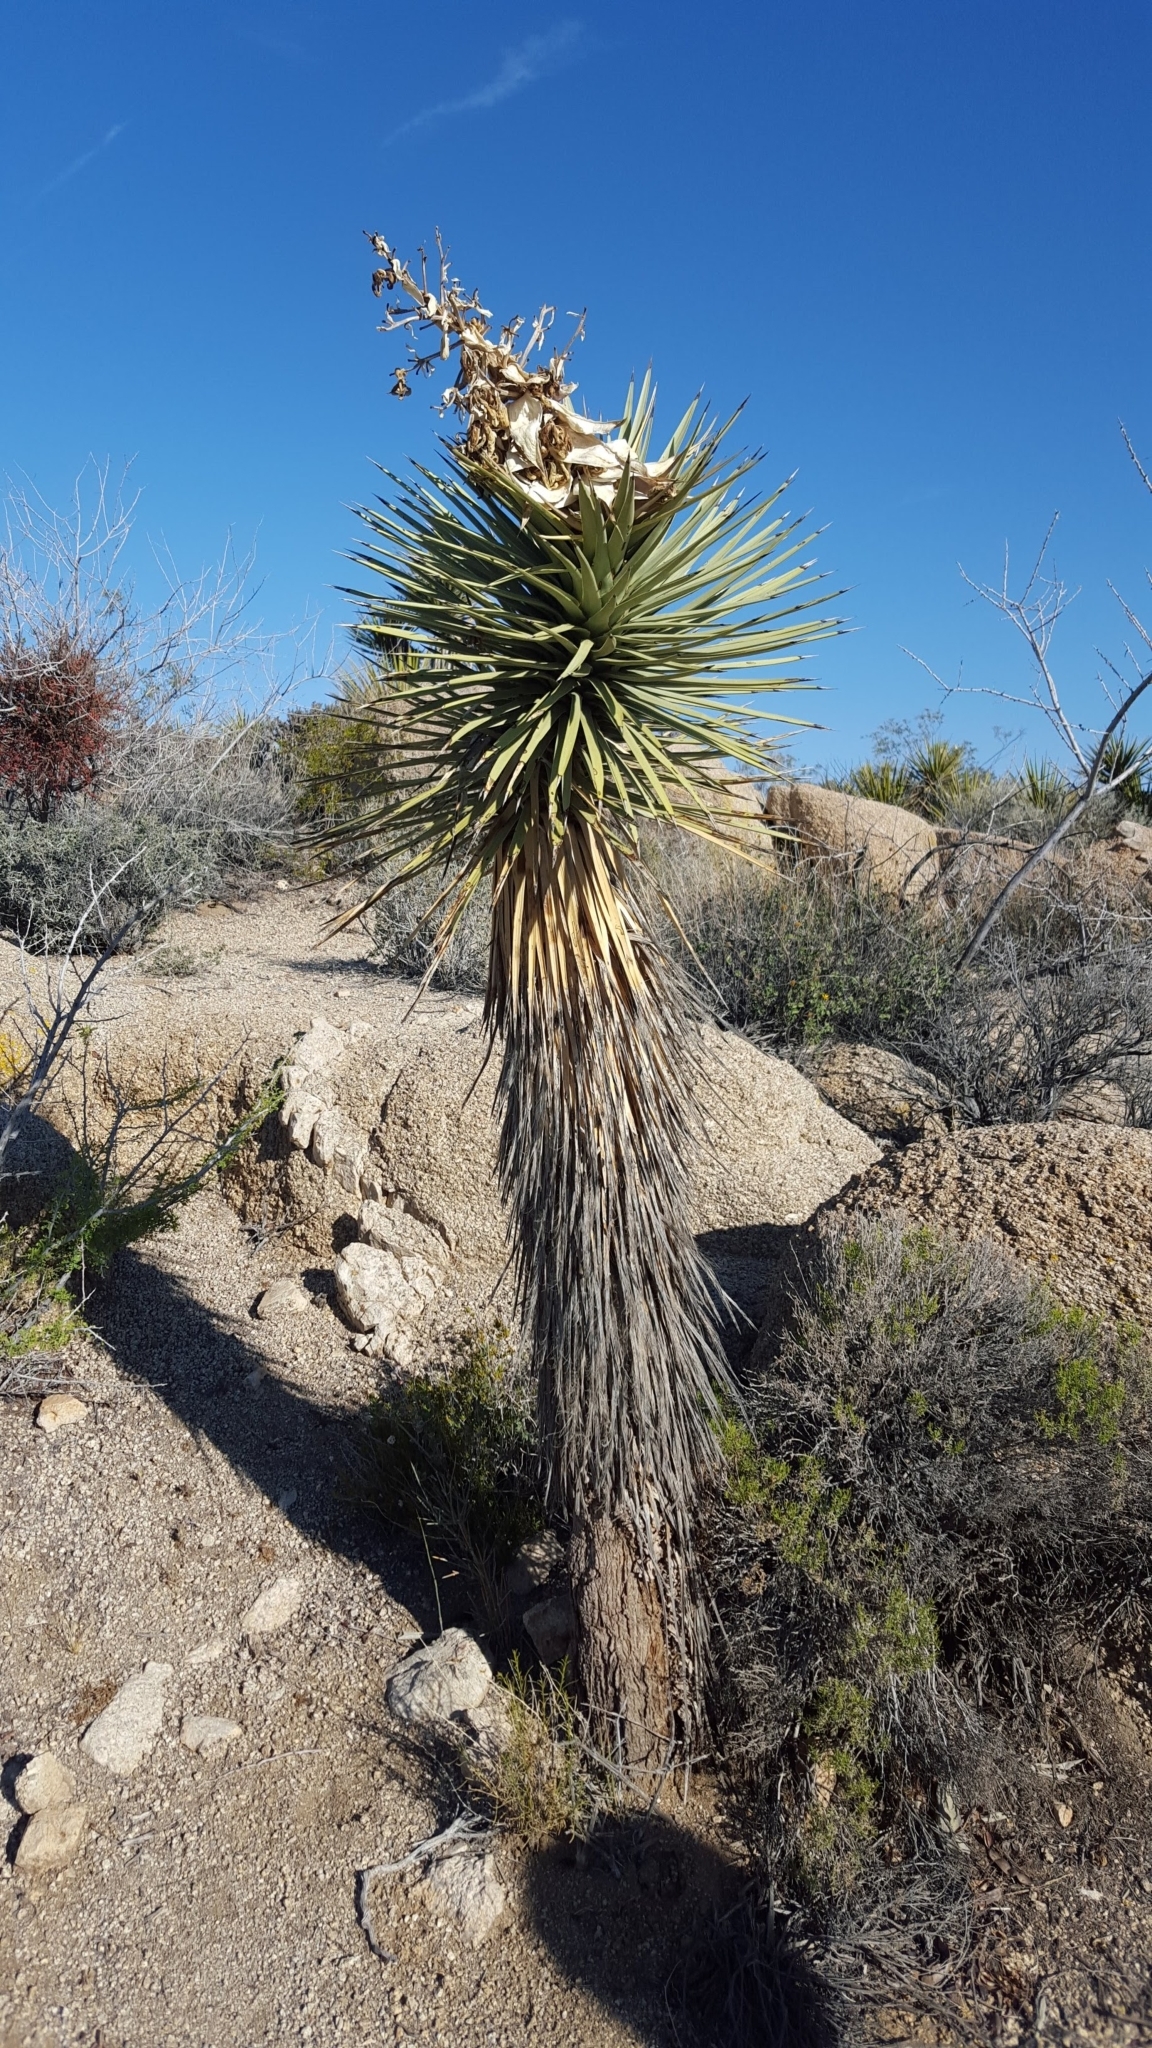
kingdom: Plantae
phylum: Tracheophyta
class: Liliopsida
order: Asparagales
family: Asparagaceae
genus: Yucca
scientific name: Yucca brevifolia
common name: Joshua tree
